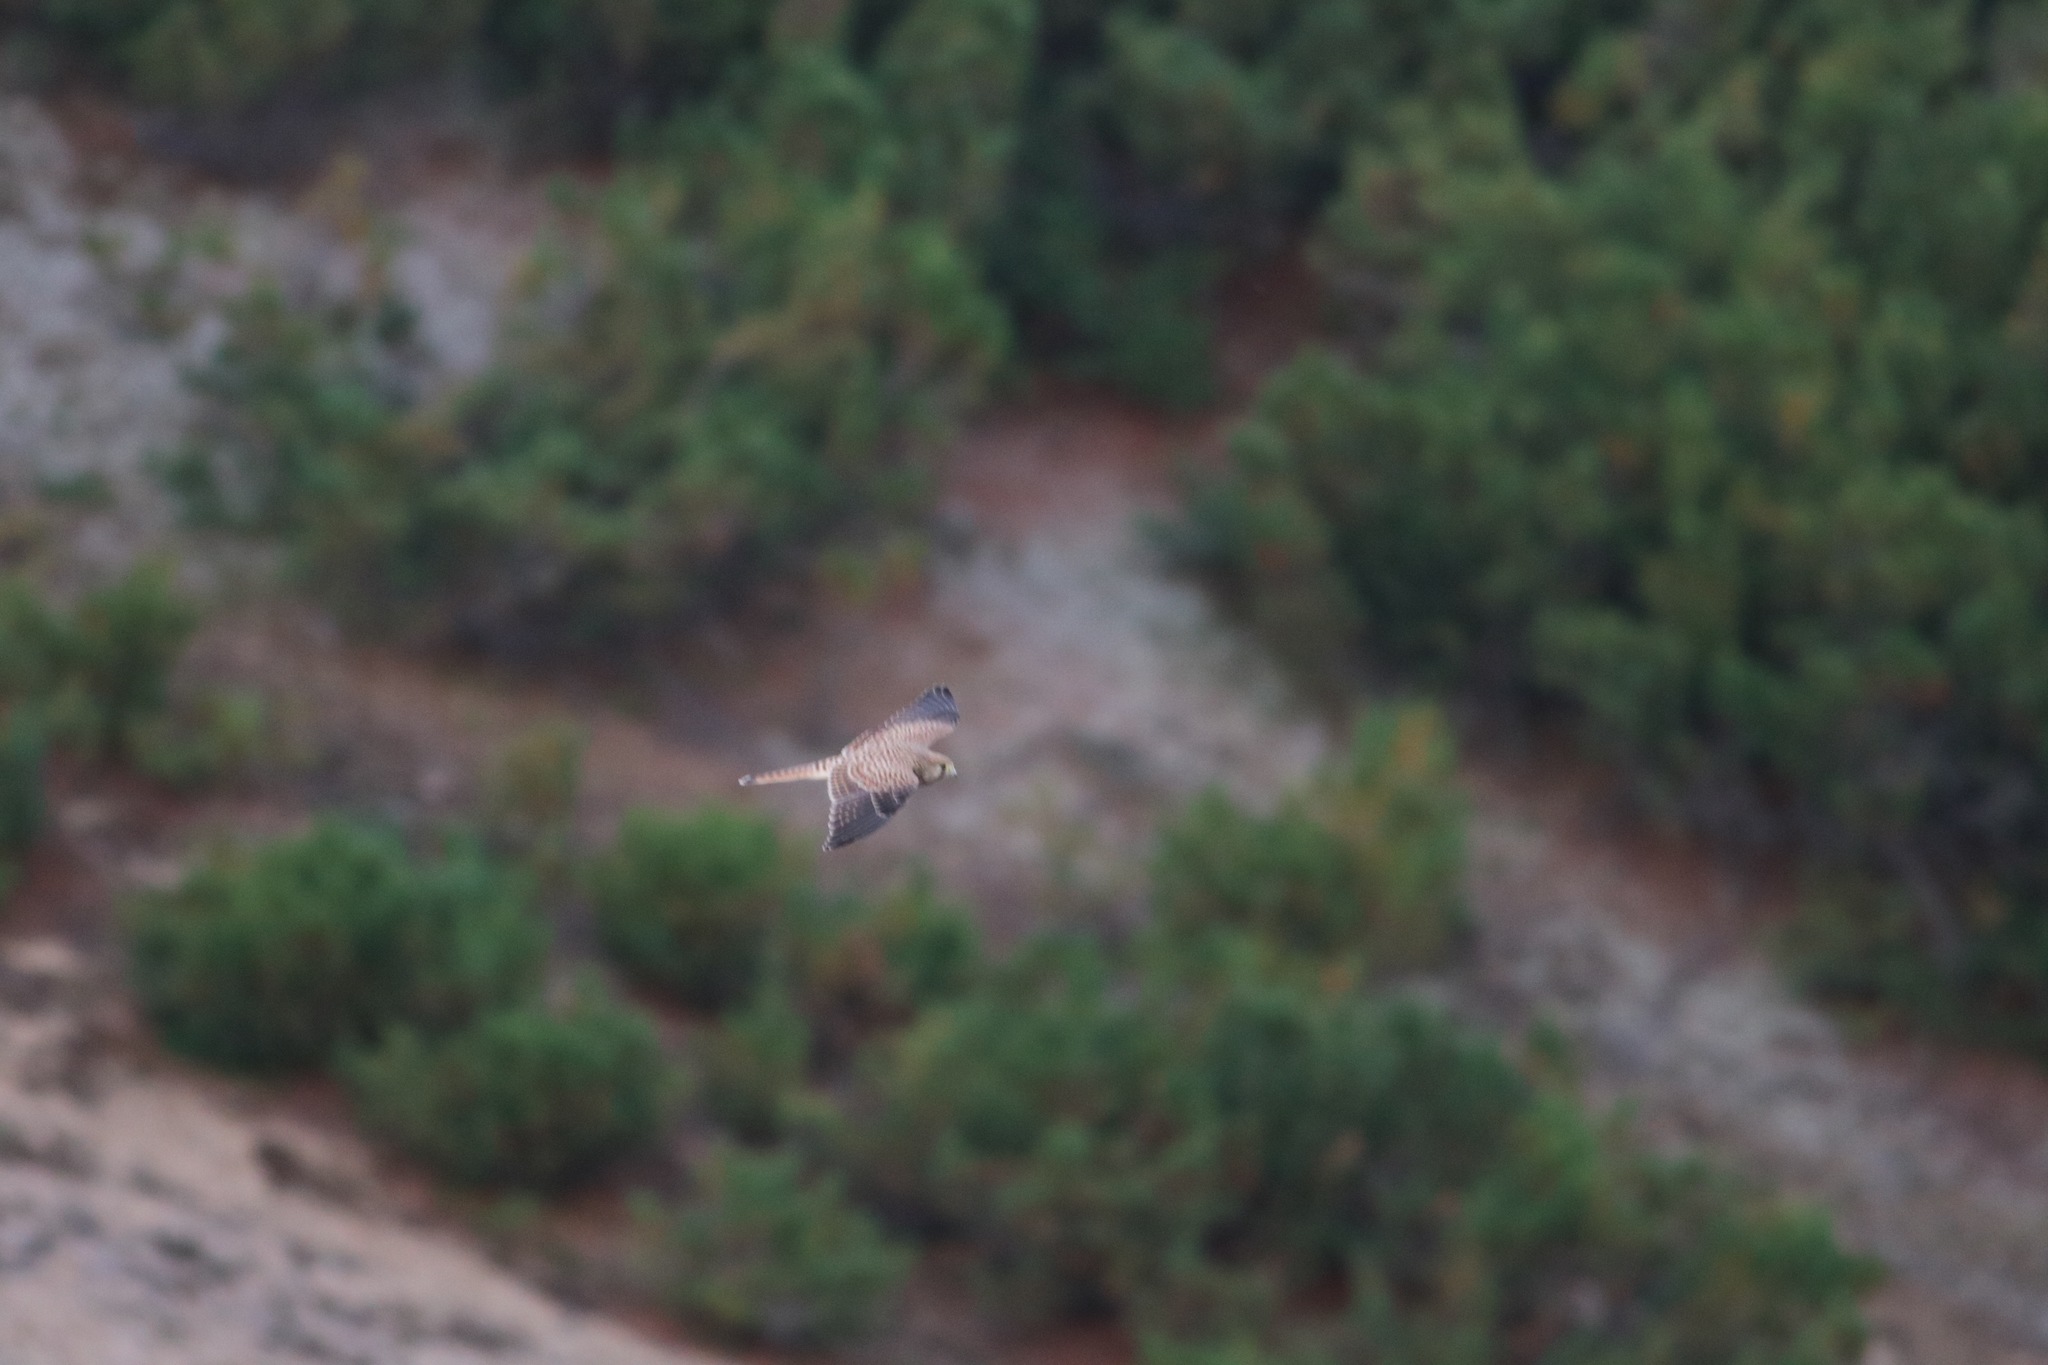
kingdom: Animalia
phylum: Chordata
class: Aves
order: Falconiformes
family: Falconidae
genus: Falco
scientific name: Falco tinnunculus
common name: Common kestrel
